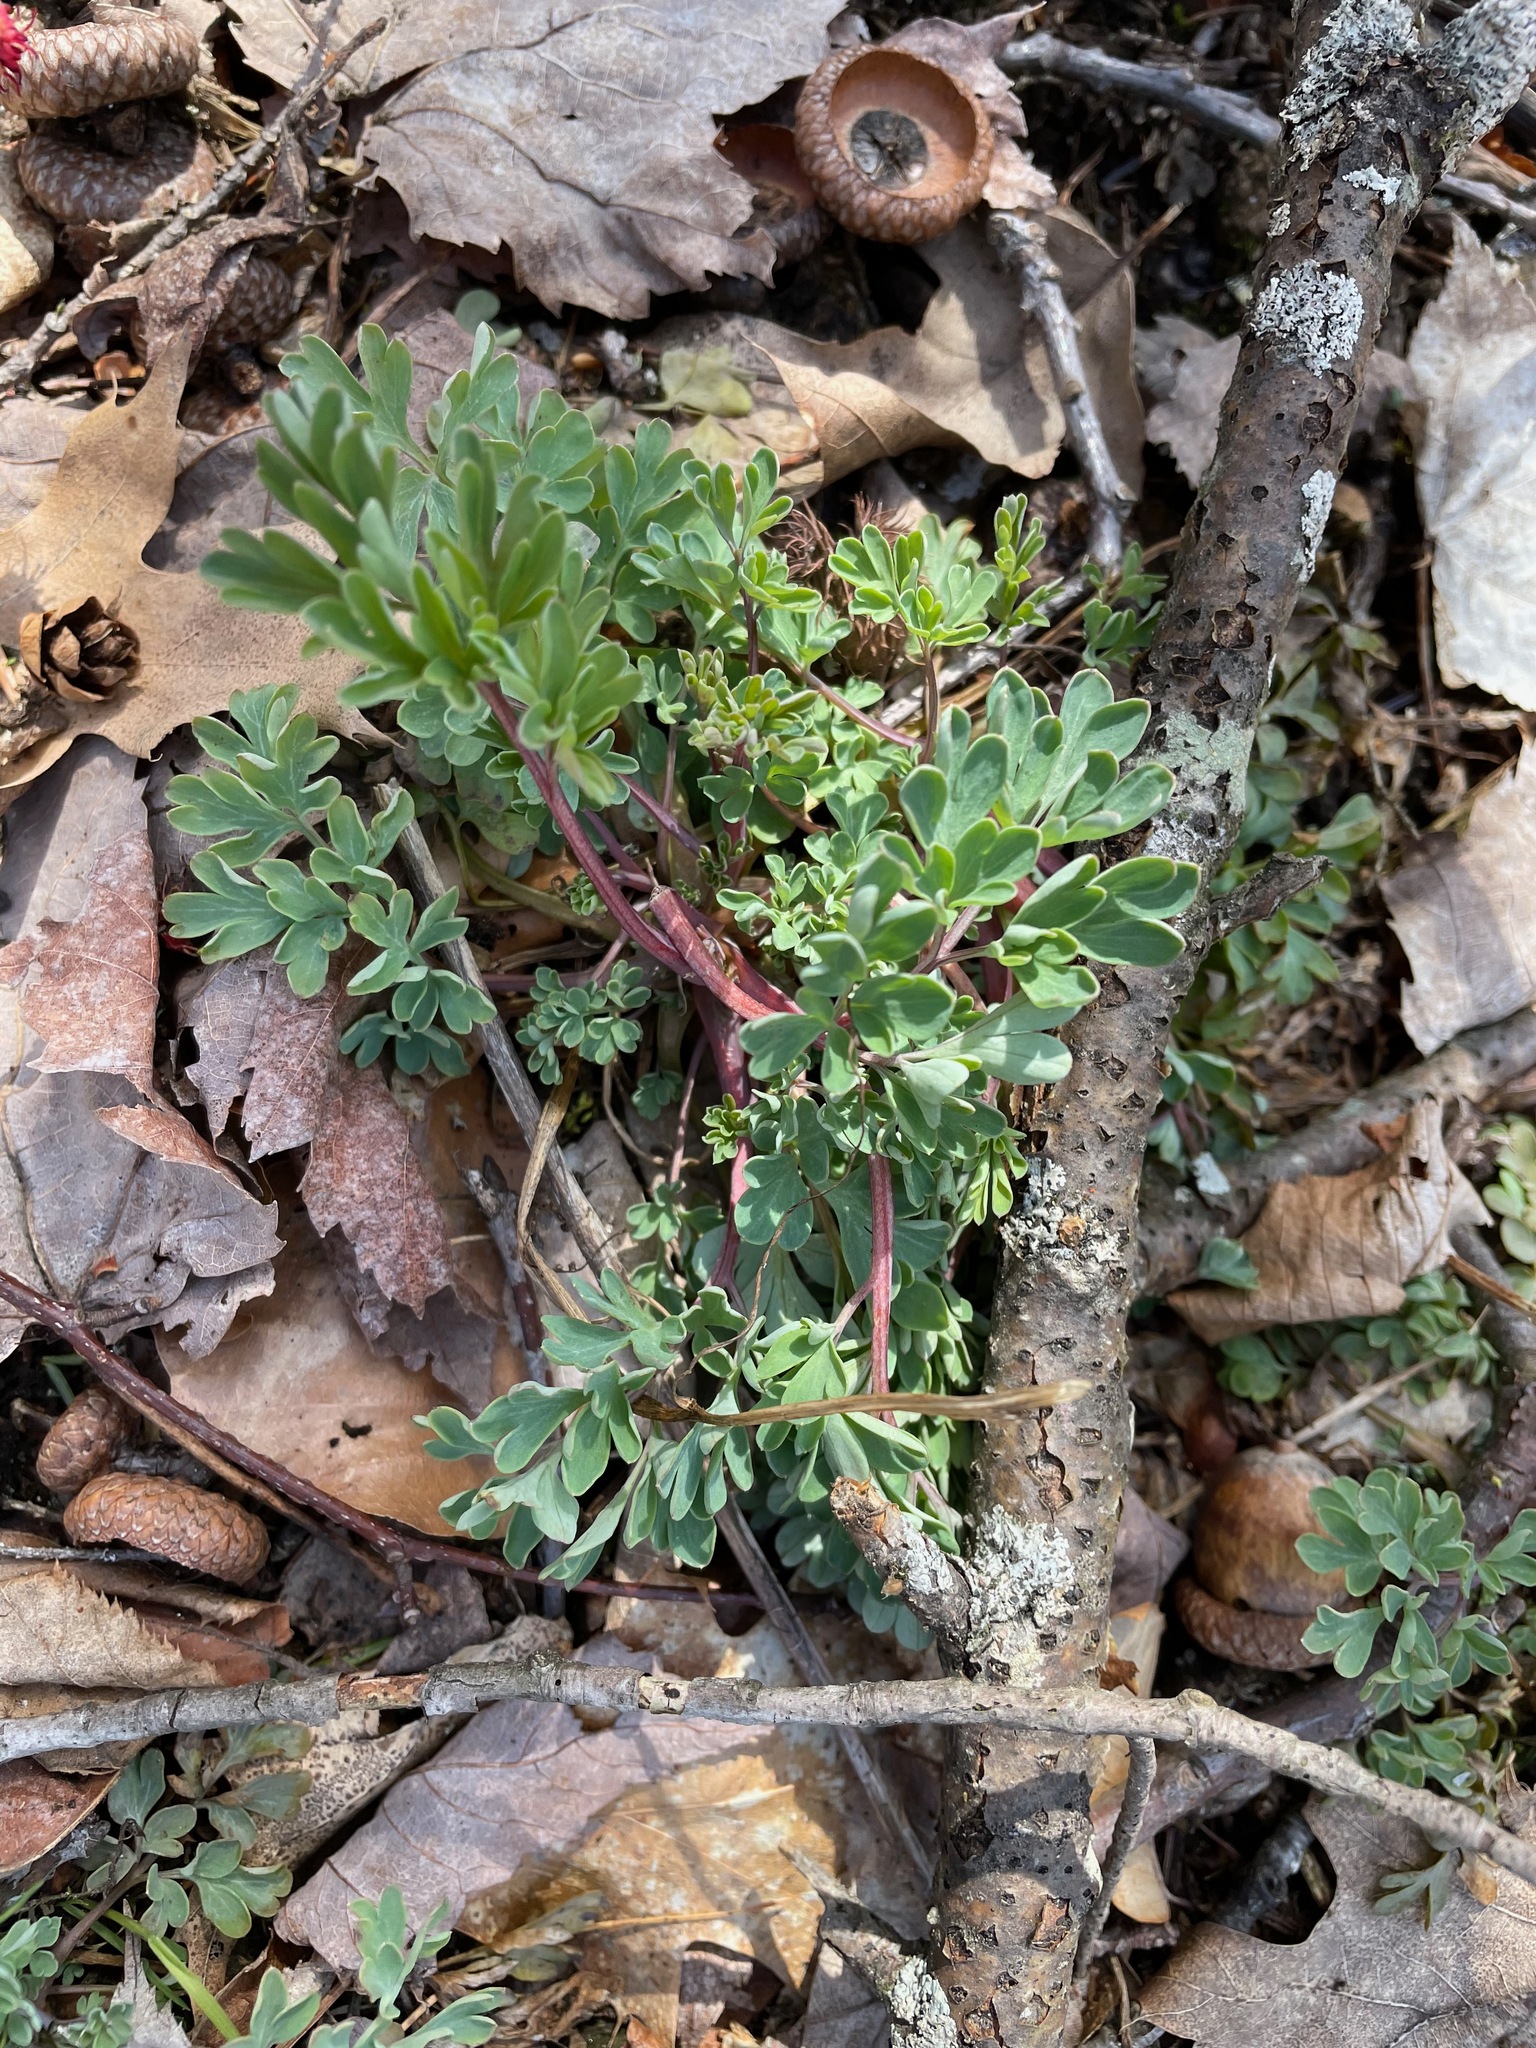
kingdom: Plantae
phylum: Tracheophyta
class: Magnoliopsida
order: Ranunculales
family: Papaveraceae
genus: Capnoides
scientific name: Capnoides sempervirens
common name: Rock harlequin
